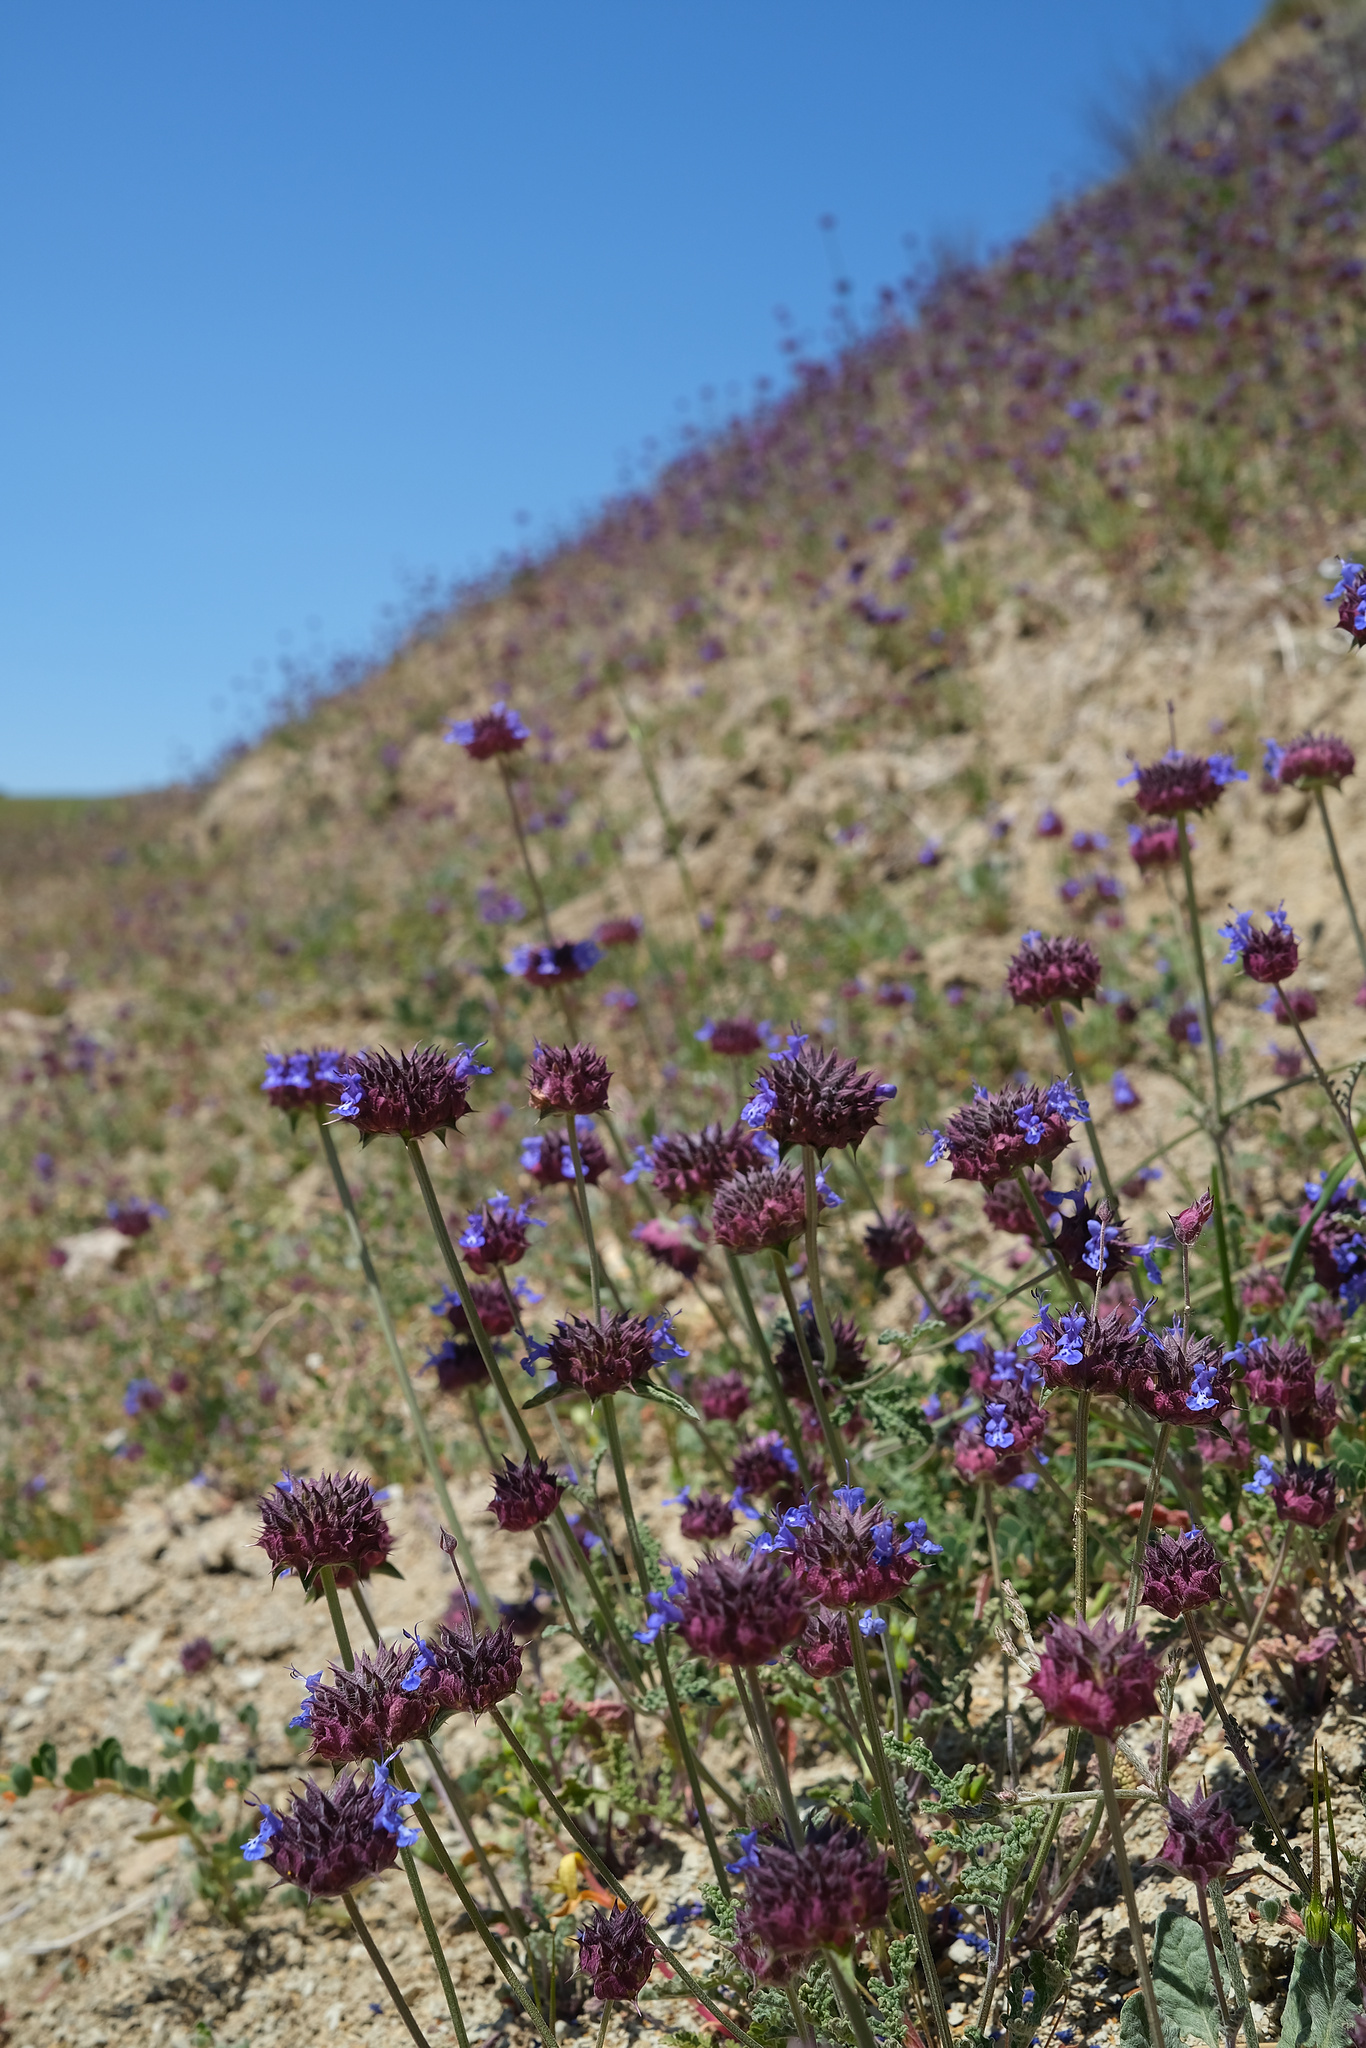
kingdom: Plantae
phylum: Tracheophyta
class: Magnoliopsida
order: Lamiales
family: Lamiaceae
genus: Salvia
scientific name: Salvia columbariae
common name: Chia
